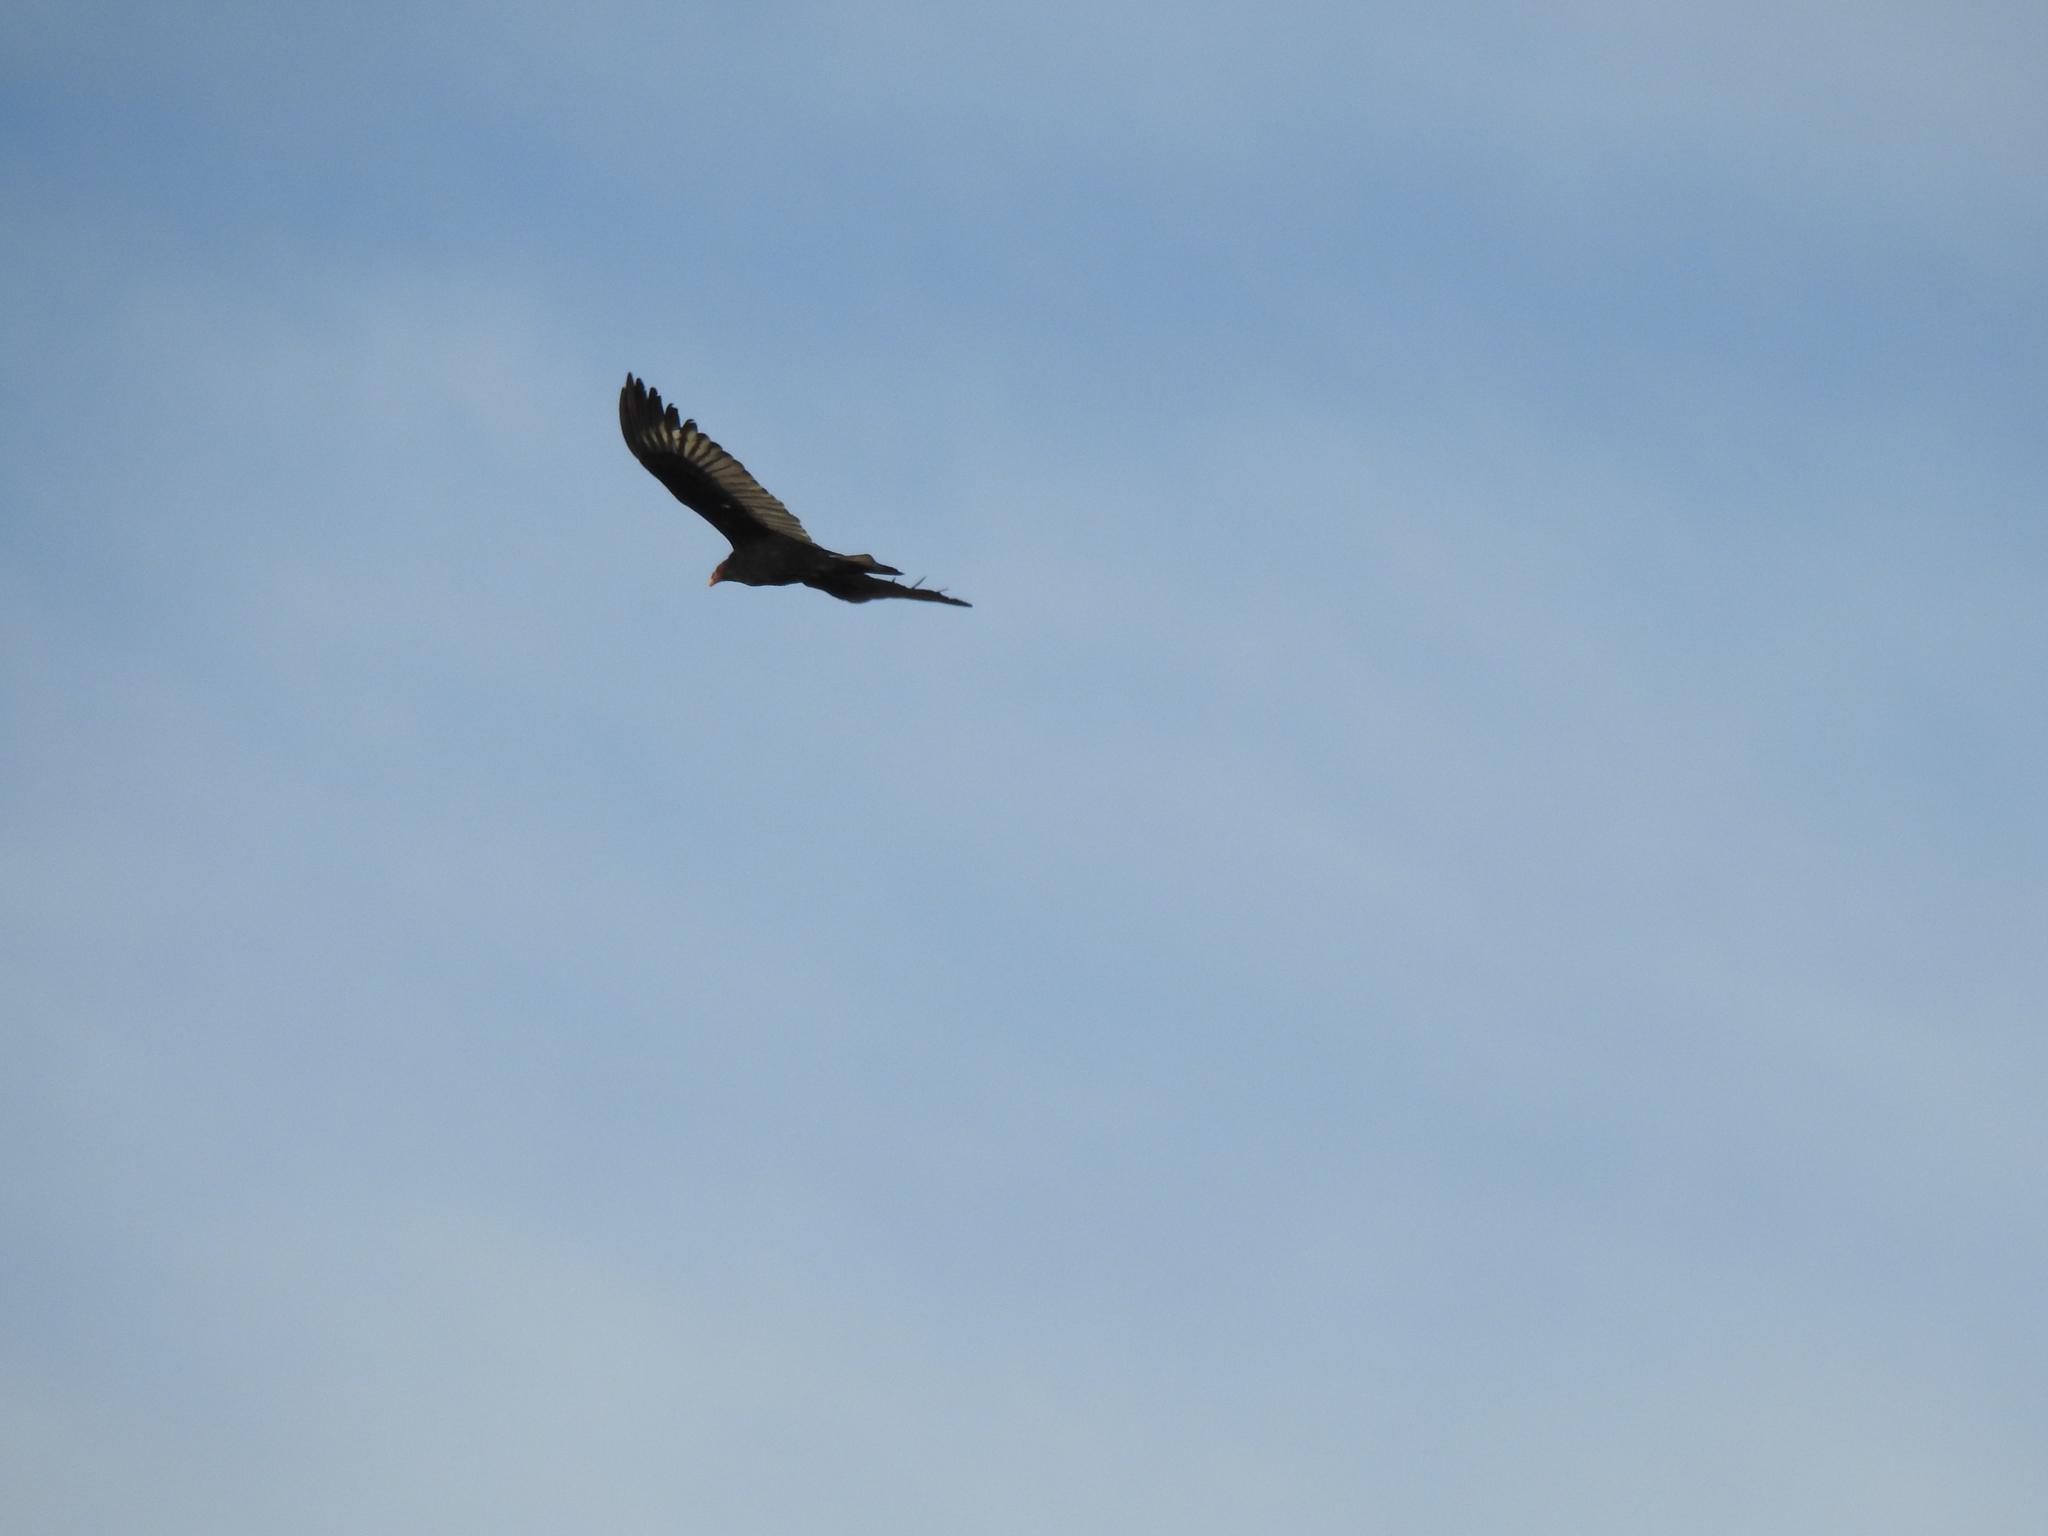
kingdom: Animalia
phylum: Chordata
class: Aves
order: Accipitriformes
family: Cathartidae
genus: Cathartes
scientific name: Cathartes aura
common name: Turkey vulture
